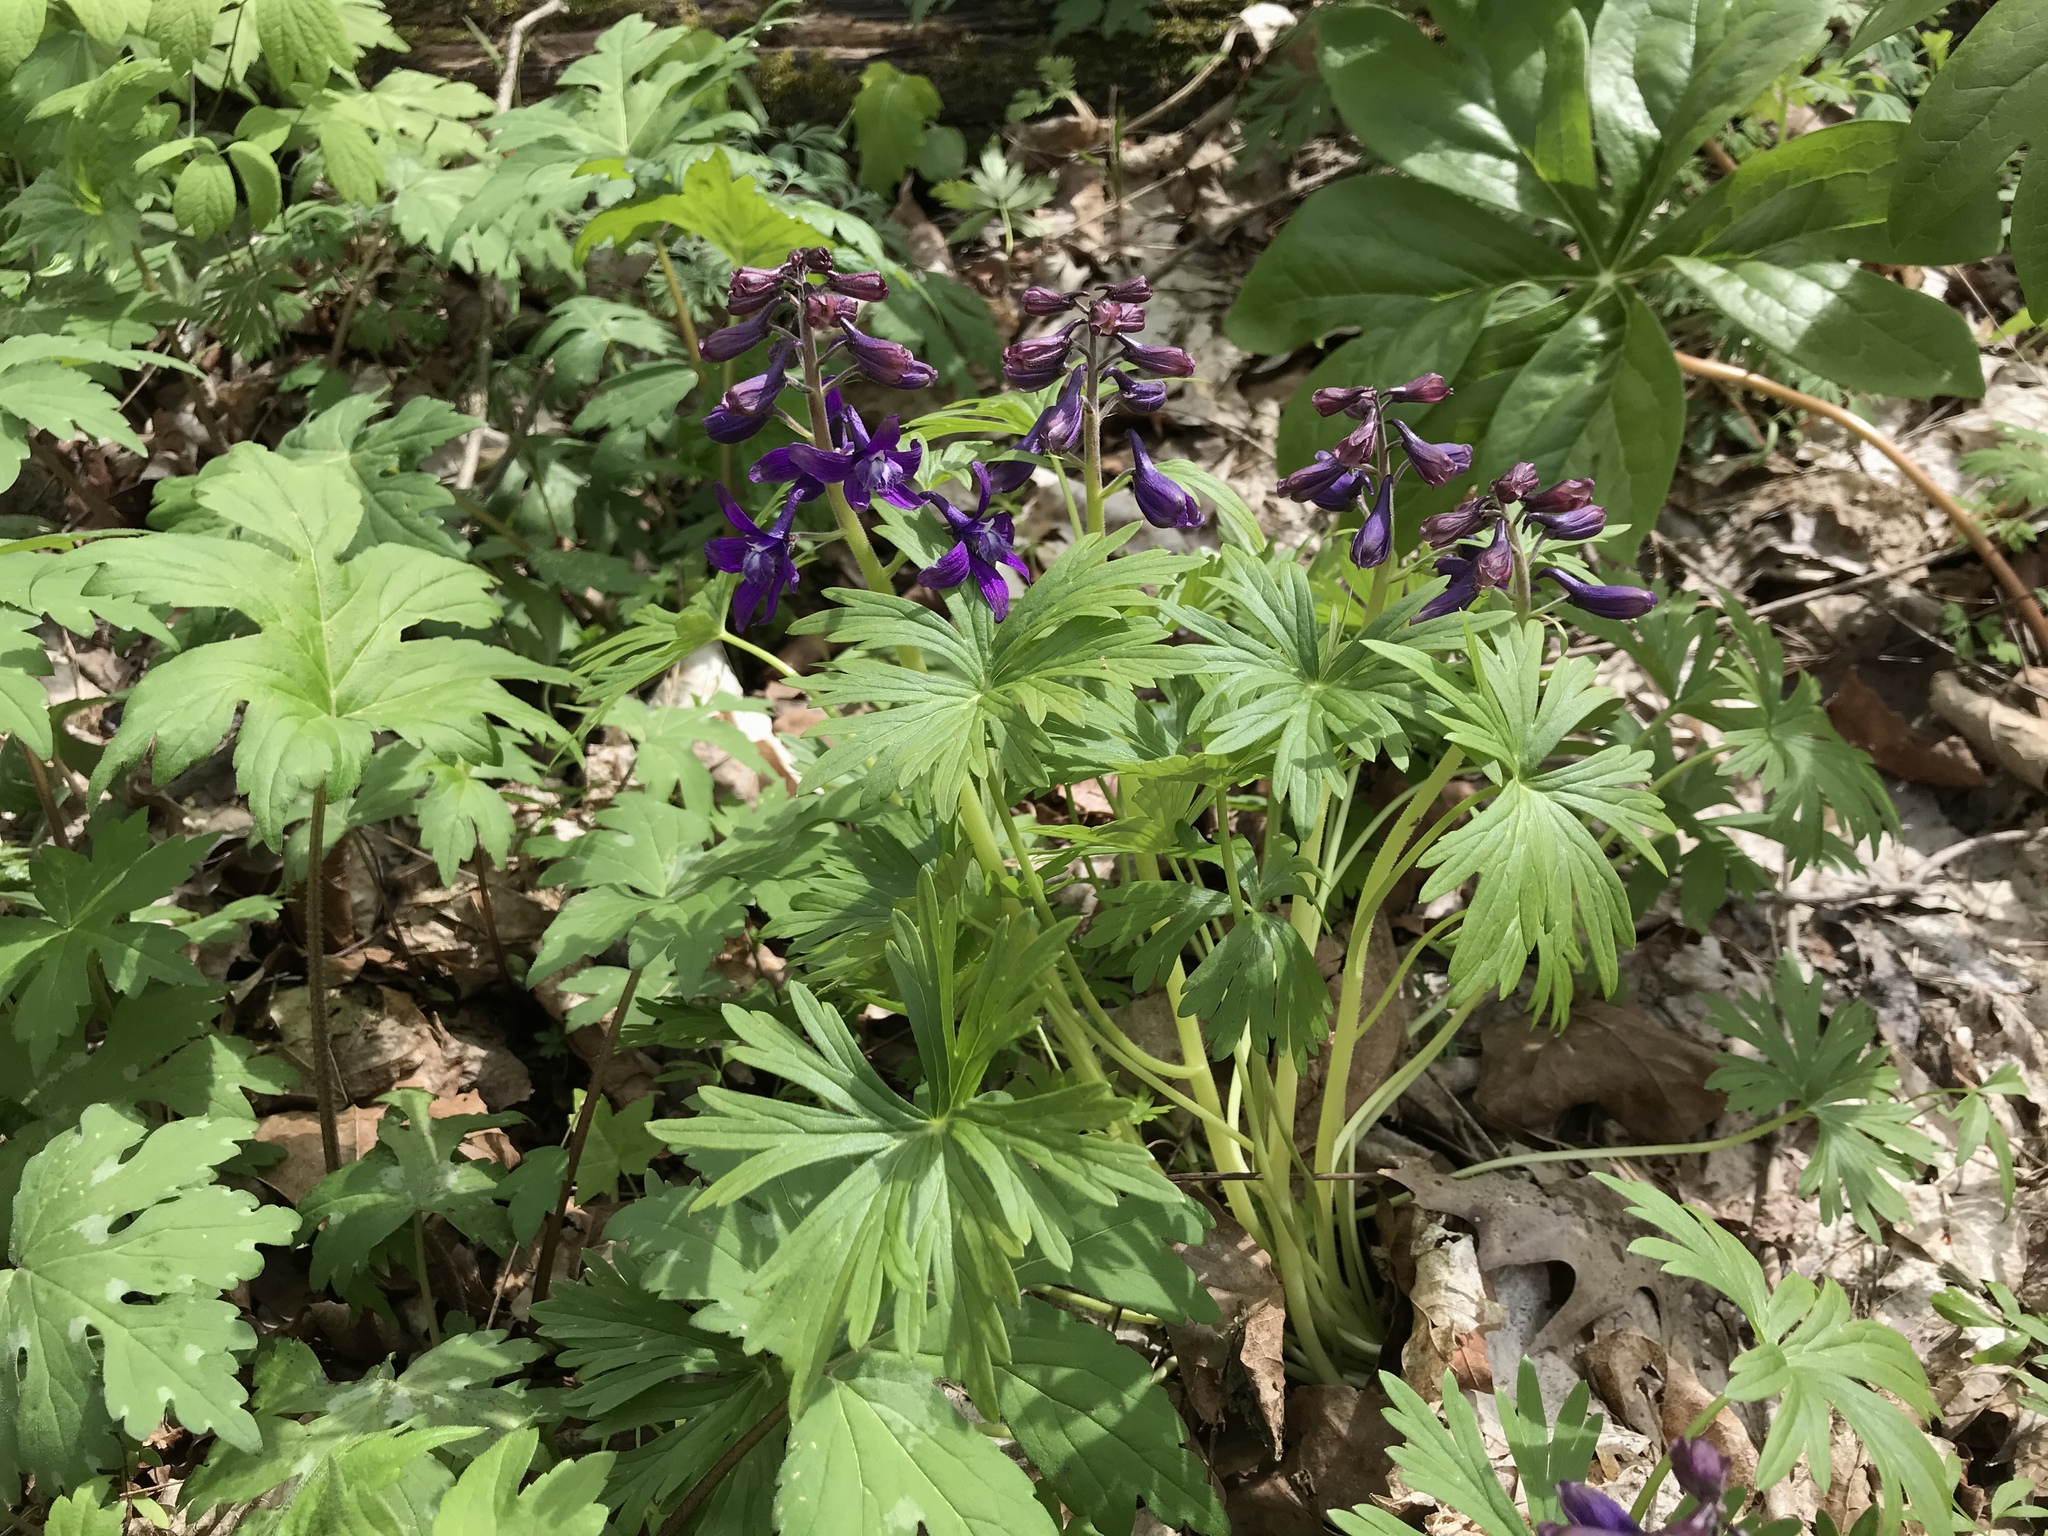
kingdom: Plantae
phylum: Tracheophyta
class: Magnoliopsida
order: Ranunculales
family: Ranunculaceae
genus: Delphinium
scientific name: Delphinium tricorne
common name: Dwarf larkspur
